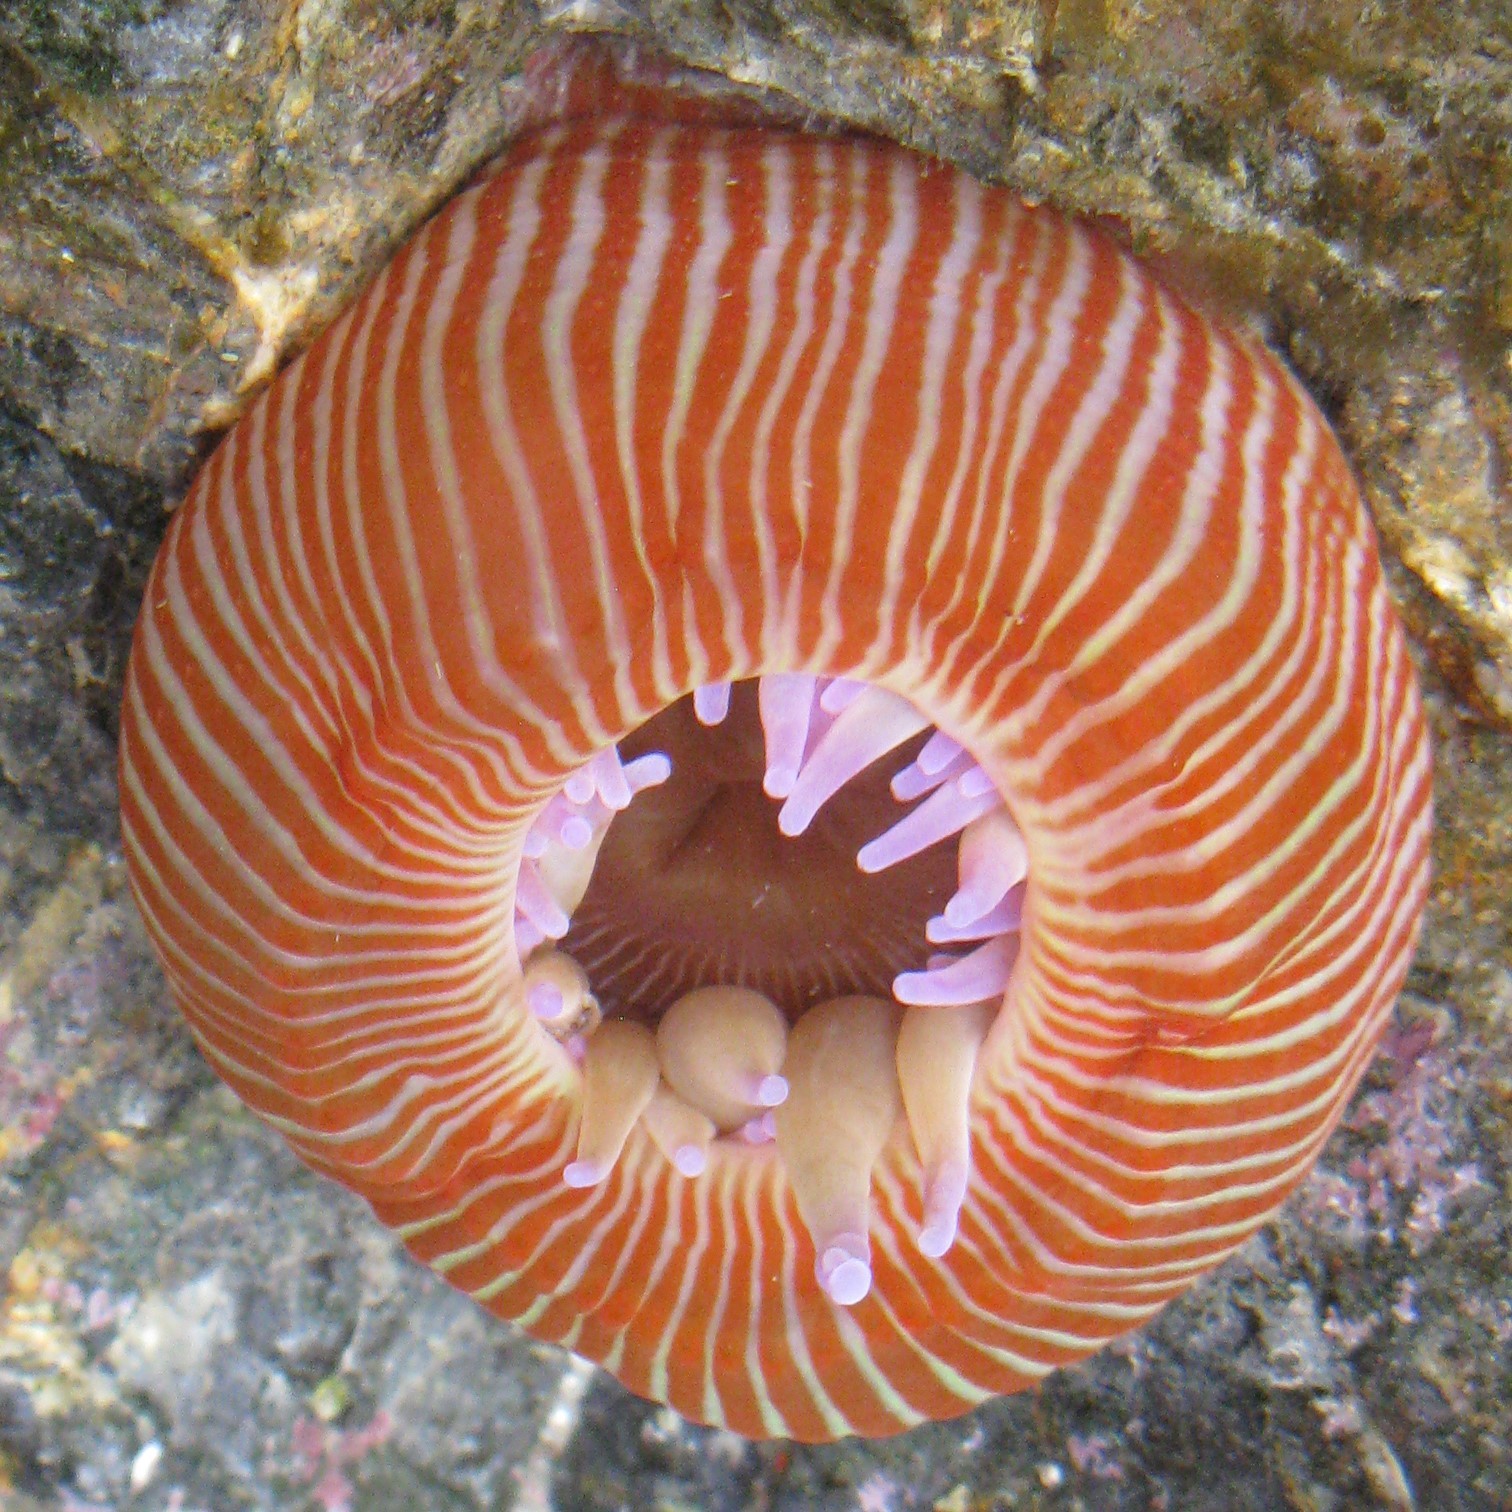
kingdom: Animalia
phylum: Cnidaria
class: Anthozoa
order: Actiniaria
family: Actiniidae
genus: Epiactis
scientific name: Epiactis thompsoni
